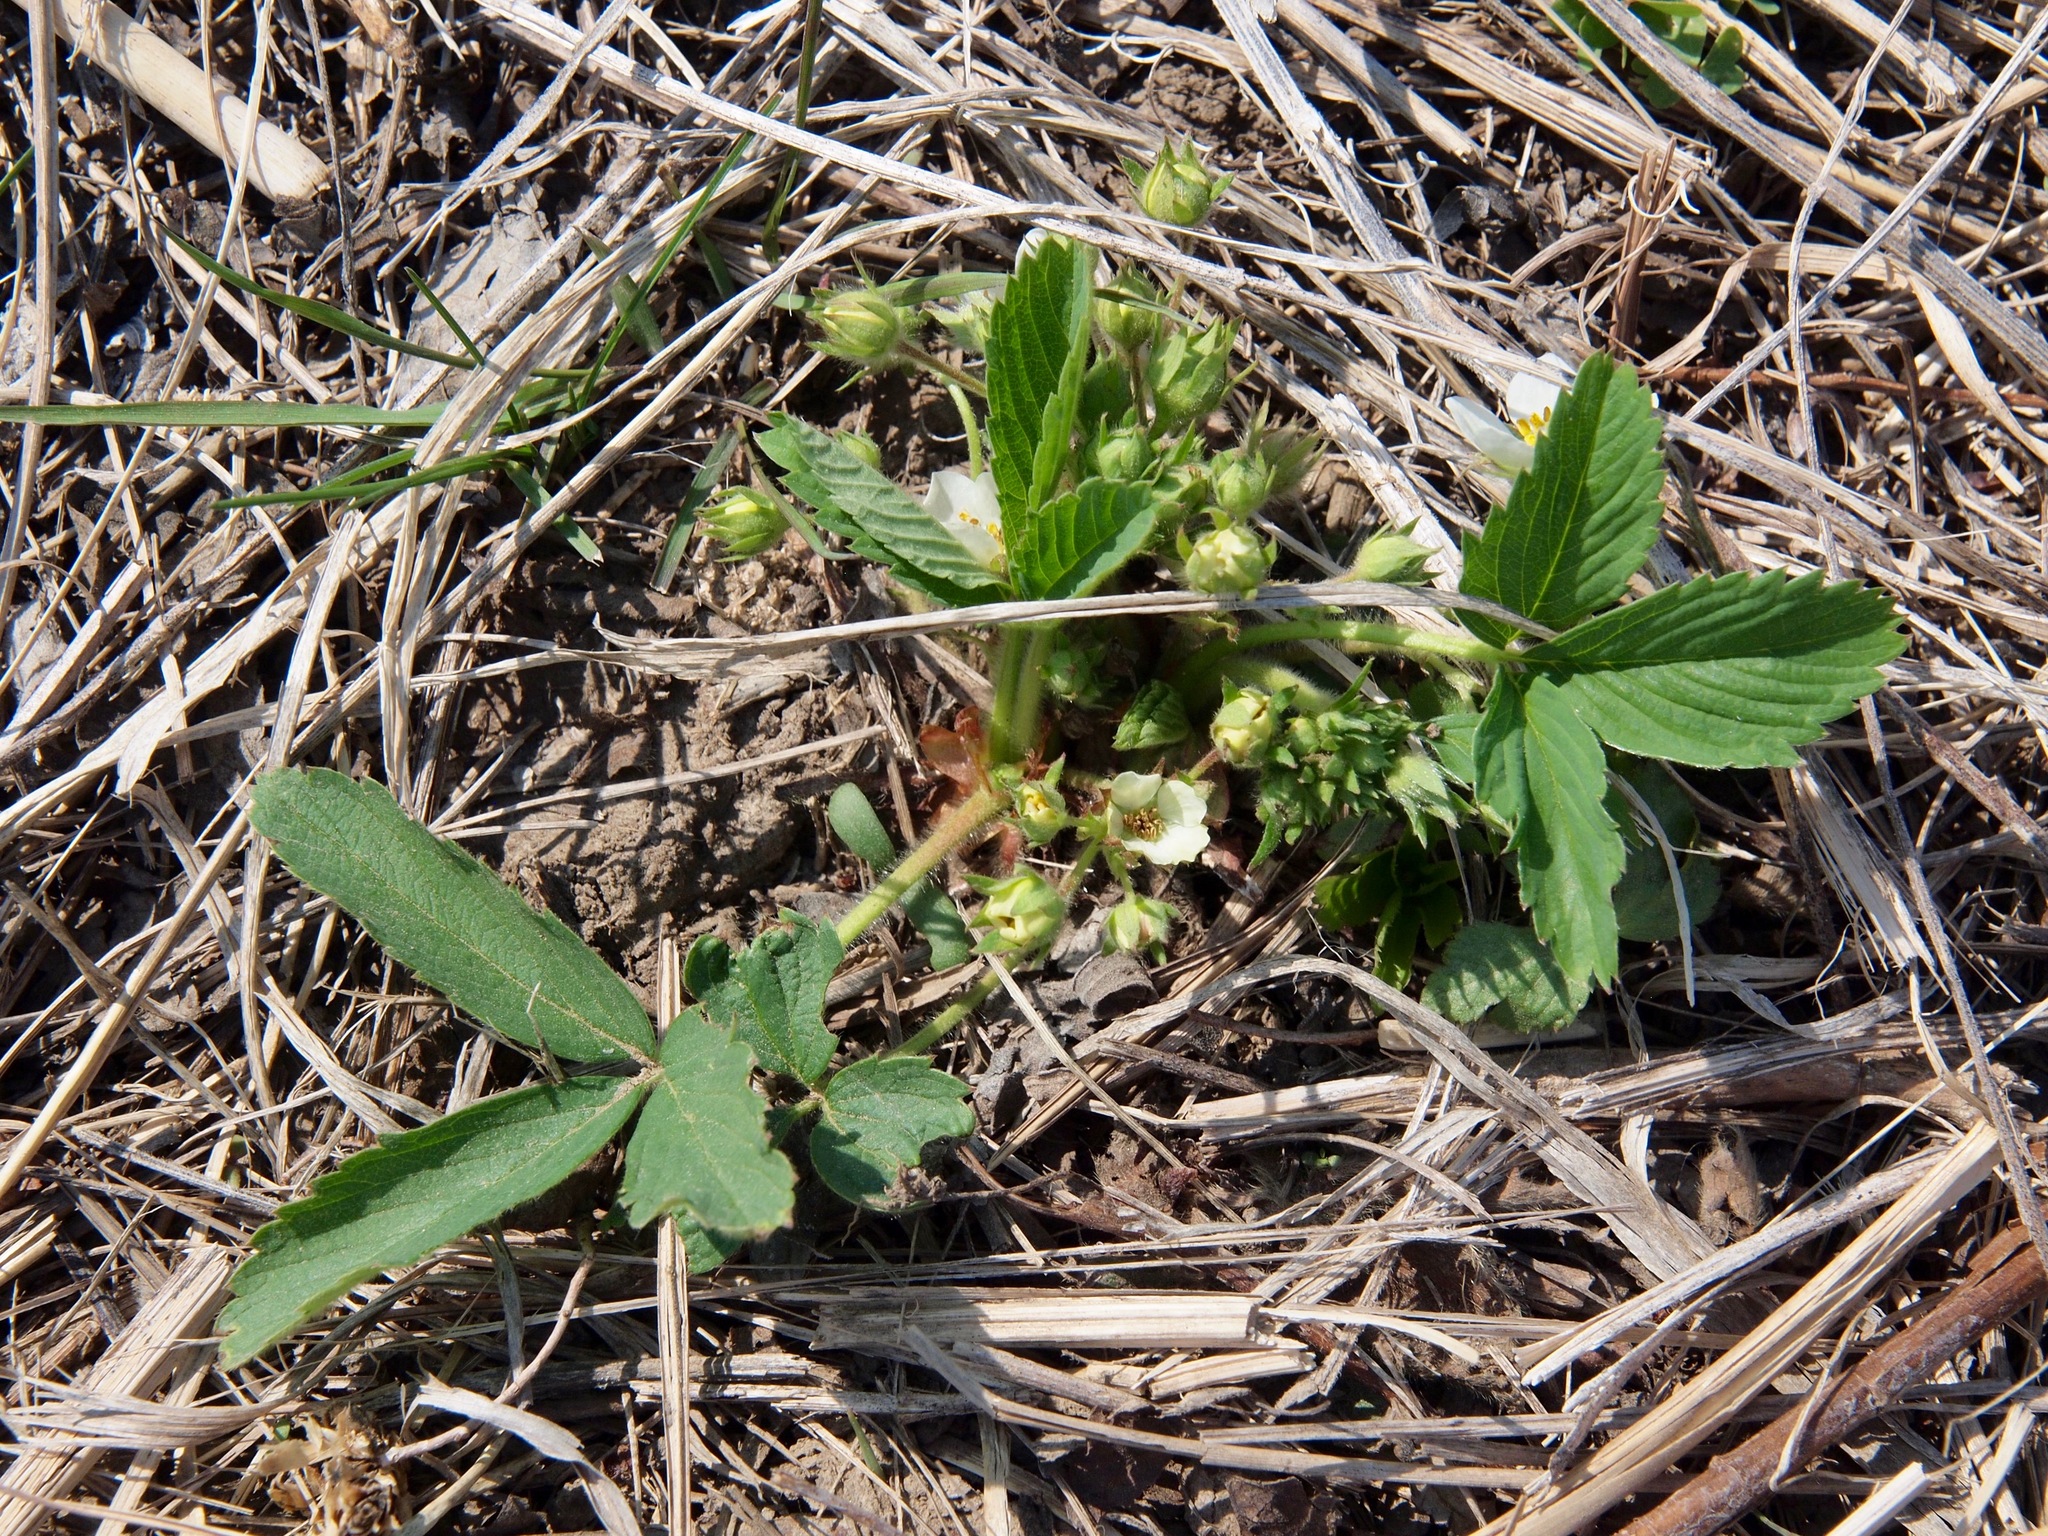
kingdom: Plantae
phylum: Tracheophyta
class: Magnoliopsida
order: Rosales
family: Rosaceae
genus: Fragaria
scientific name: Fragaria virginiana
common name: Thickleaved wild strawberry
